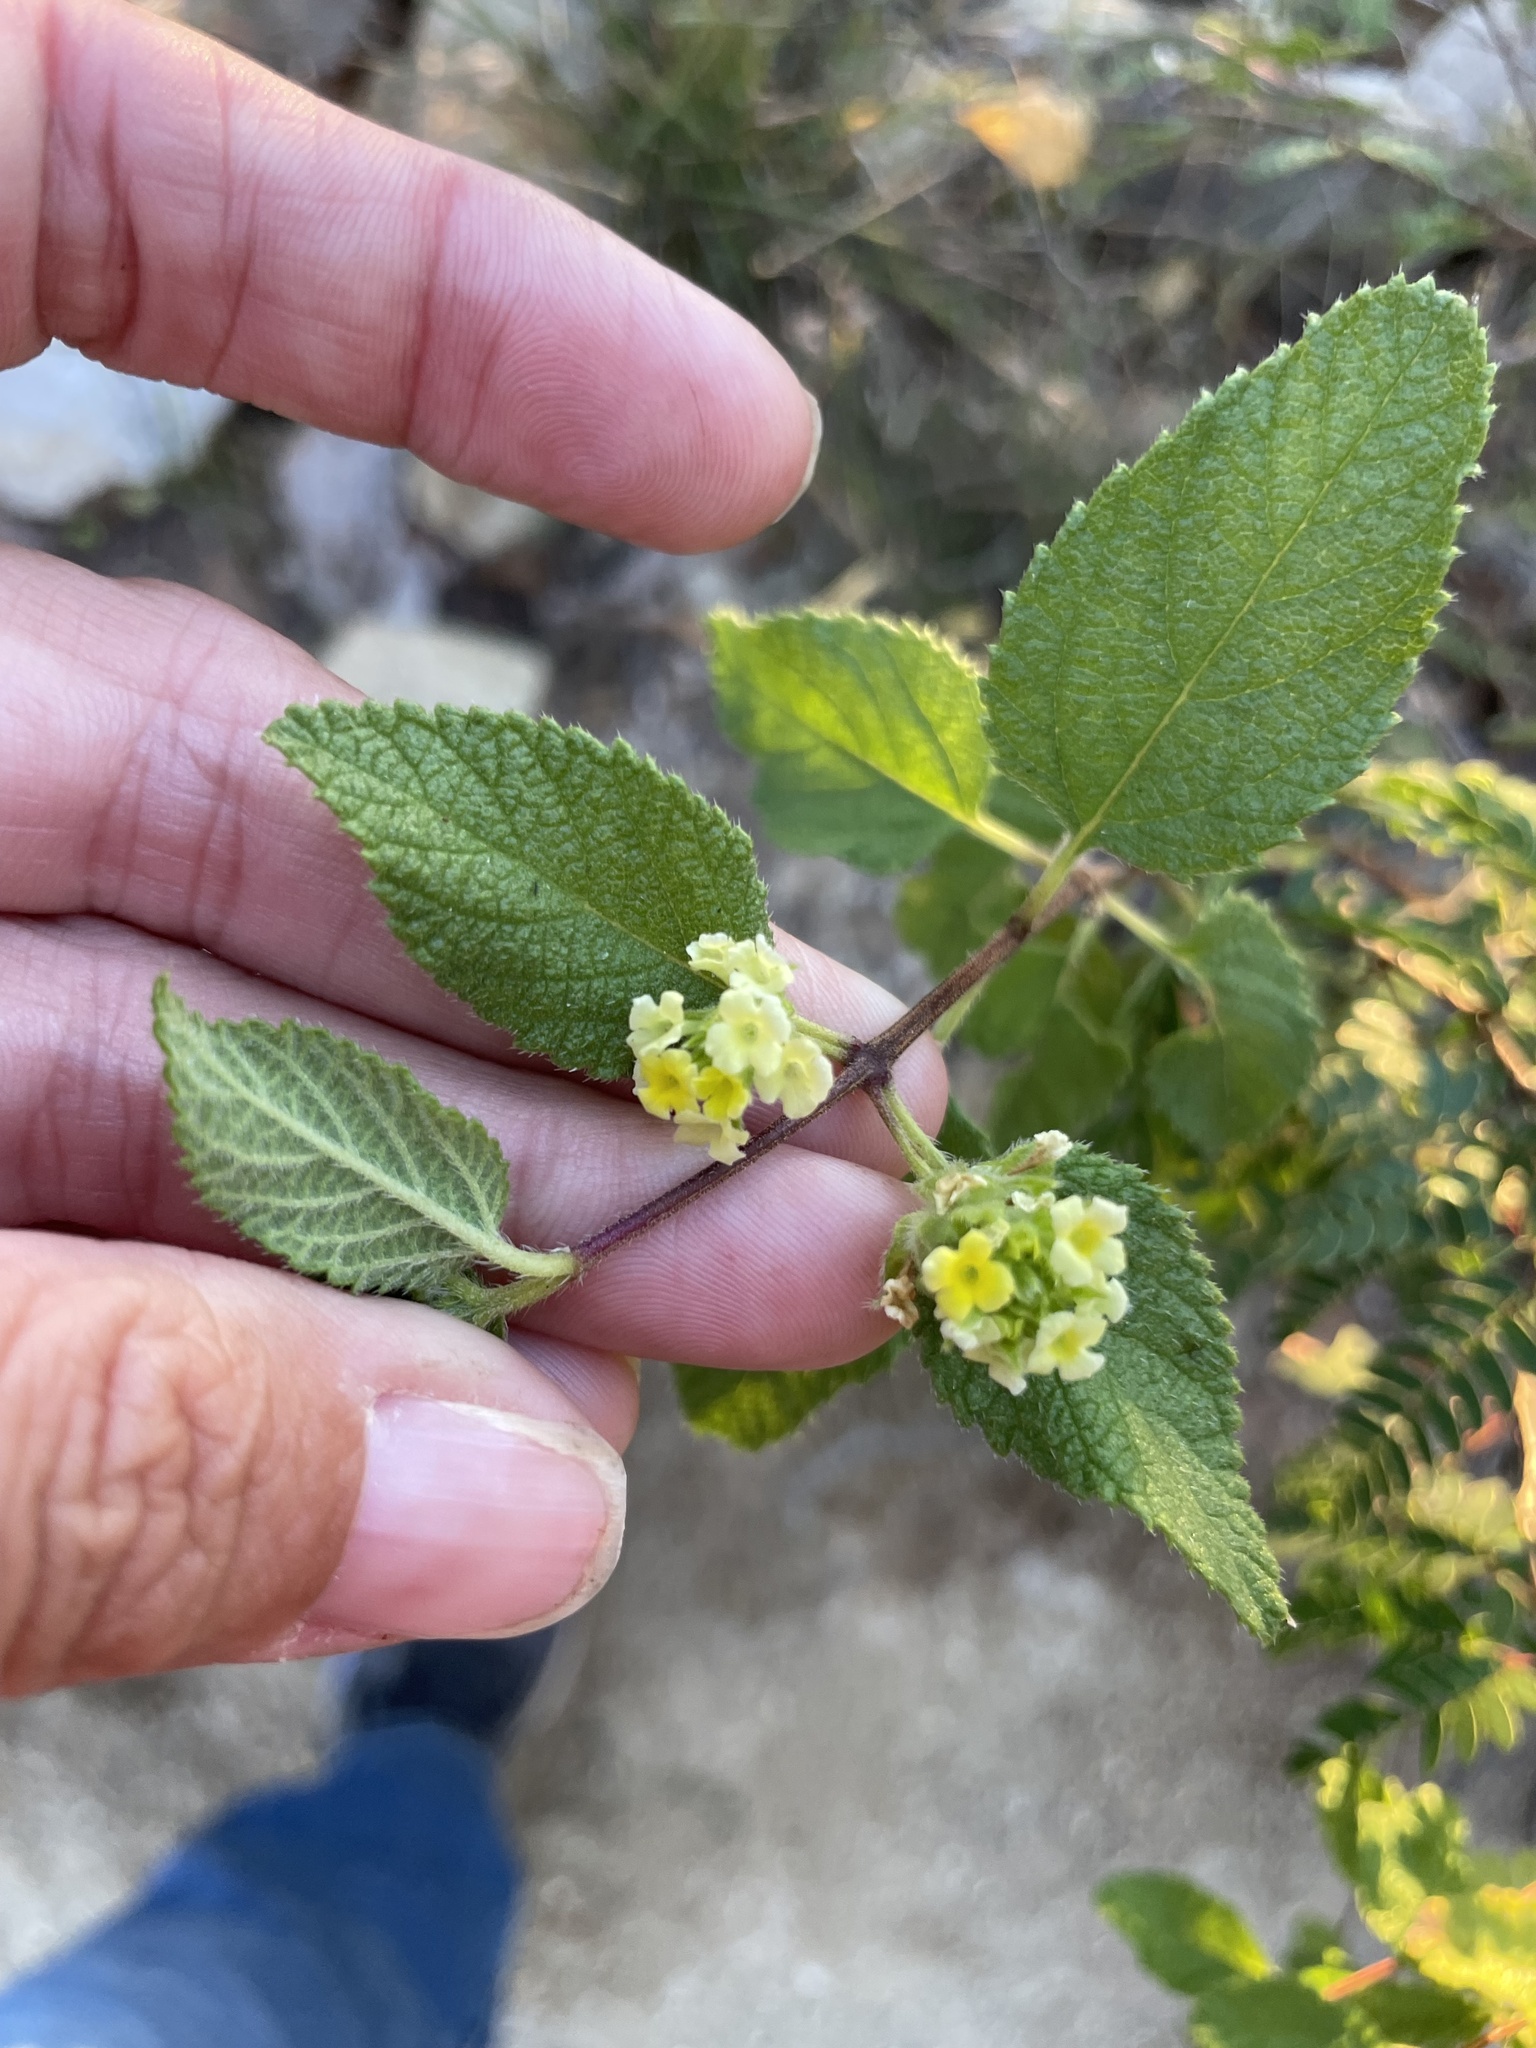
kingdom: Plantae
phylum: Tracheophyta
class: Magnoliopsida
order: Lamiales
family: Verbenaceae
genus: Aloysia
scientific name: Aloysia barbata
